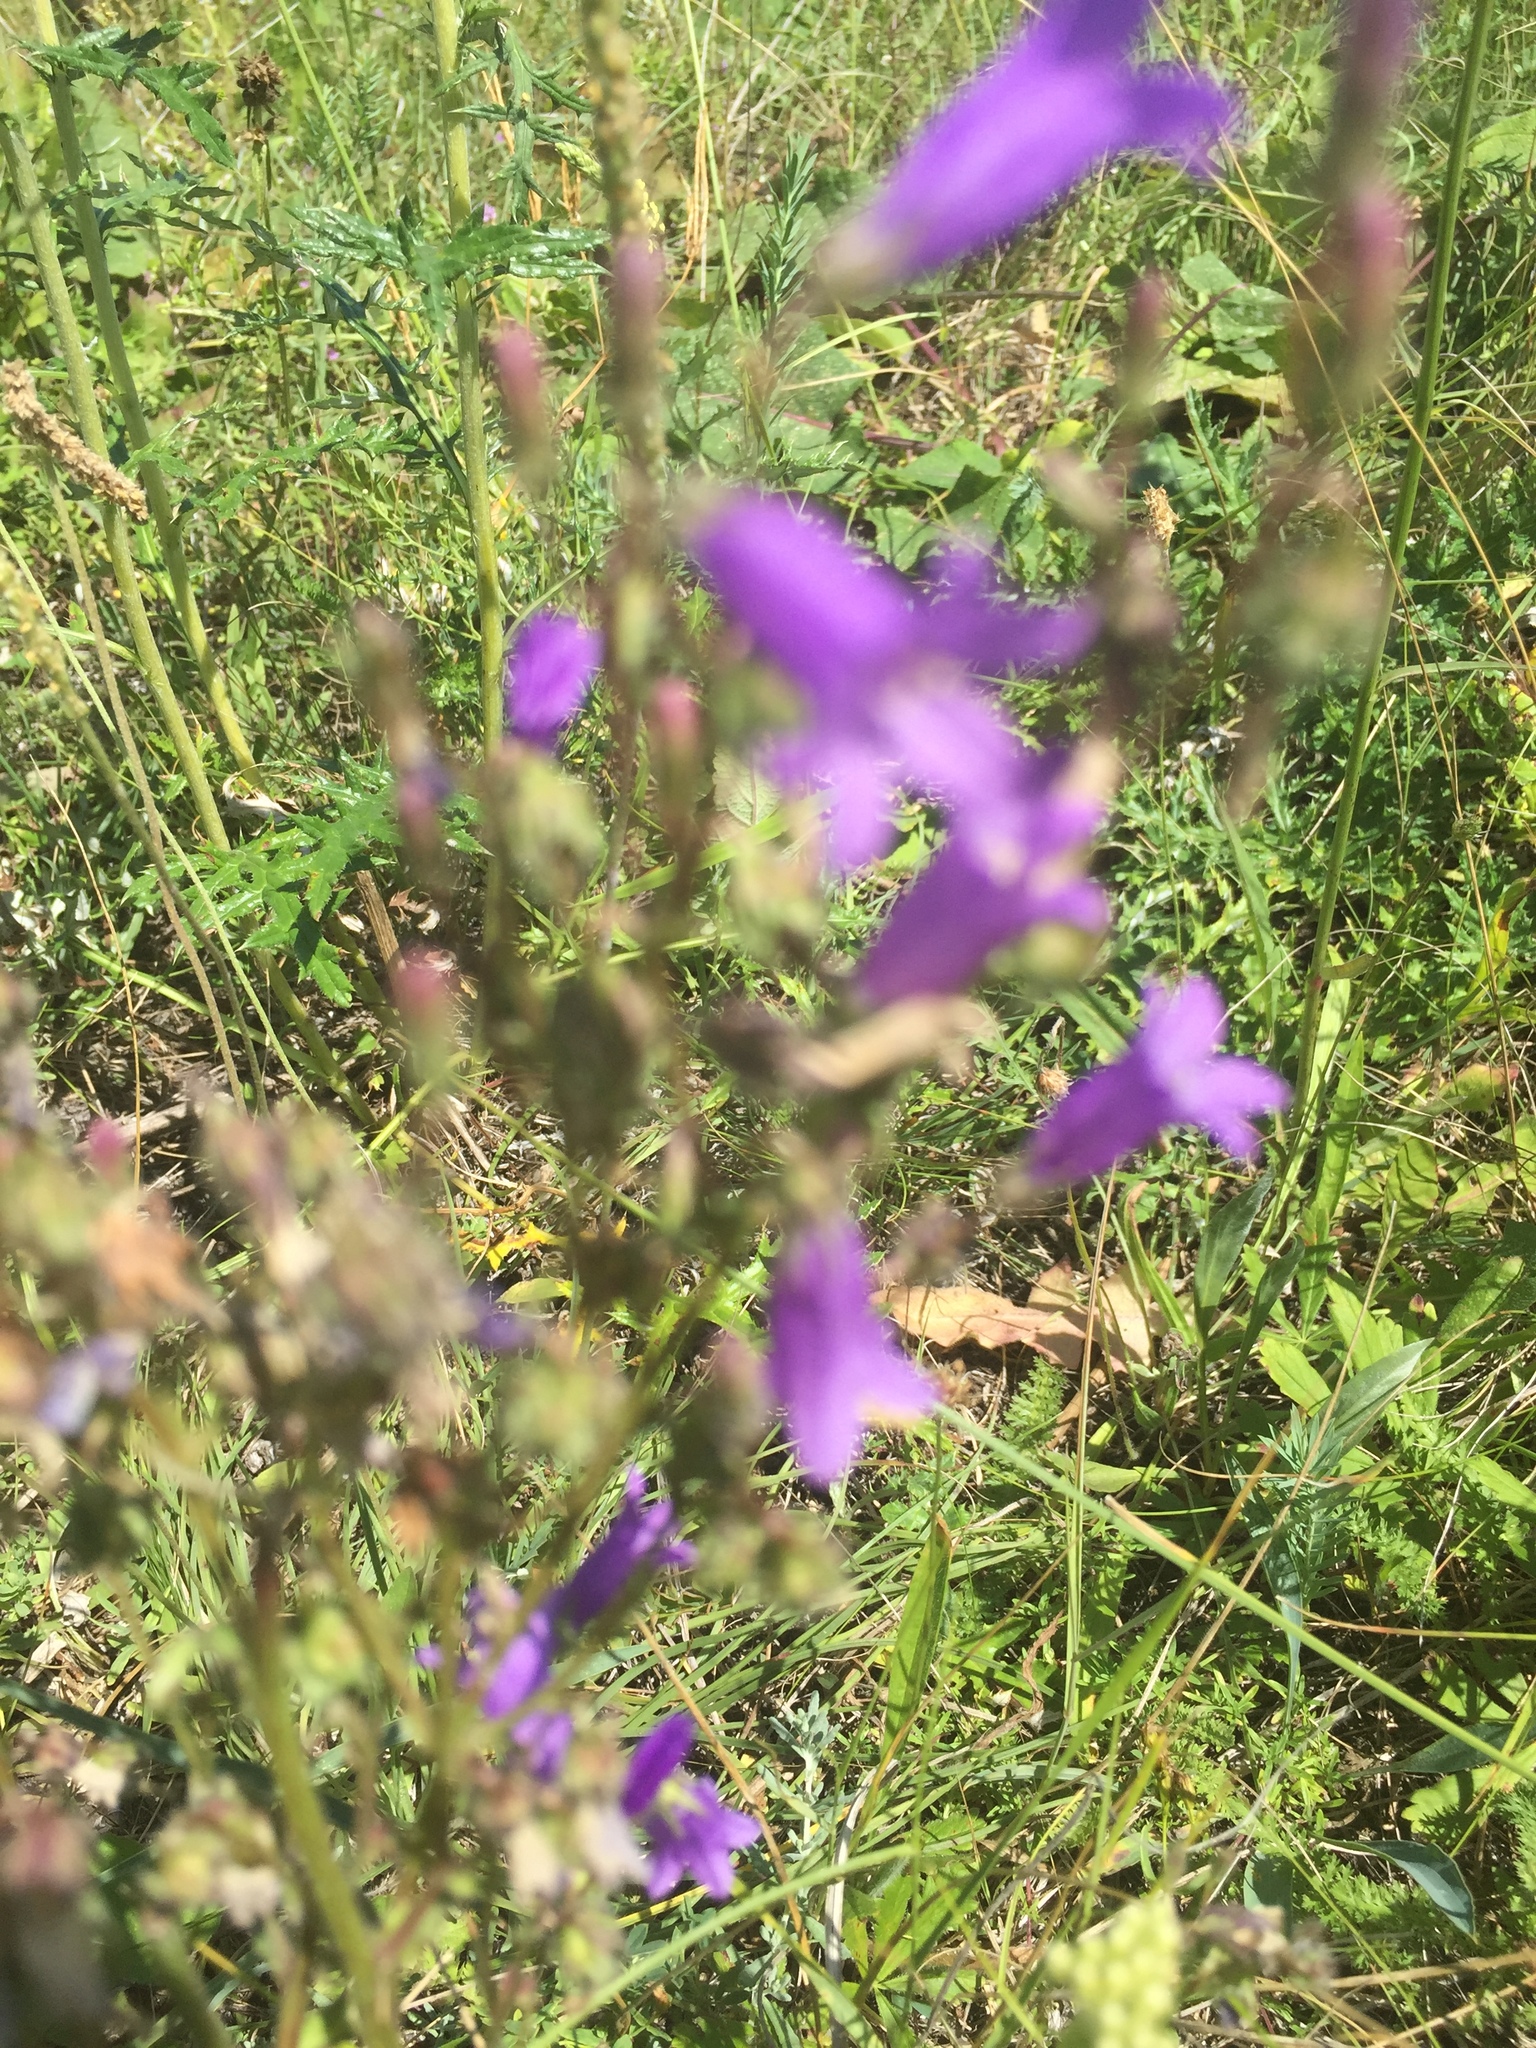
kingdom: Plantae
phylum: Tracheophyta
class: Magnoliopsida
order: Asterales
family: Campanulaceae
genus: Campanula
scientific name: Campanula sibirica
